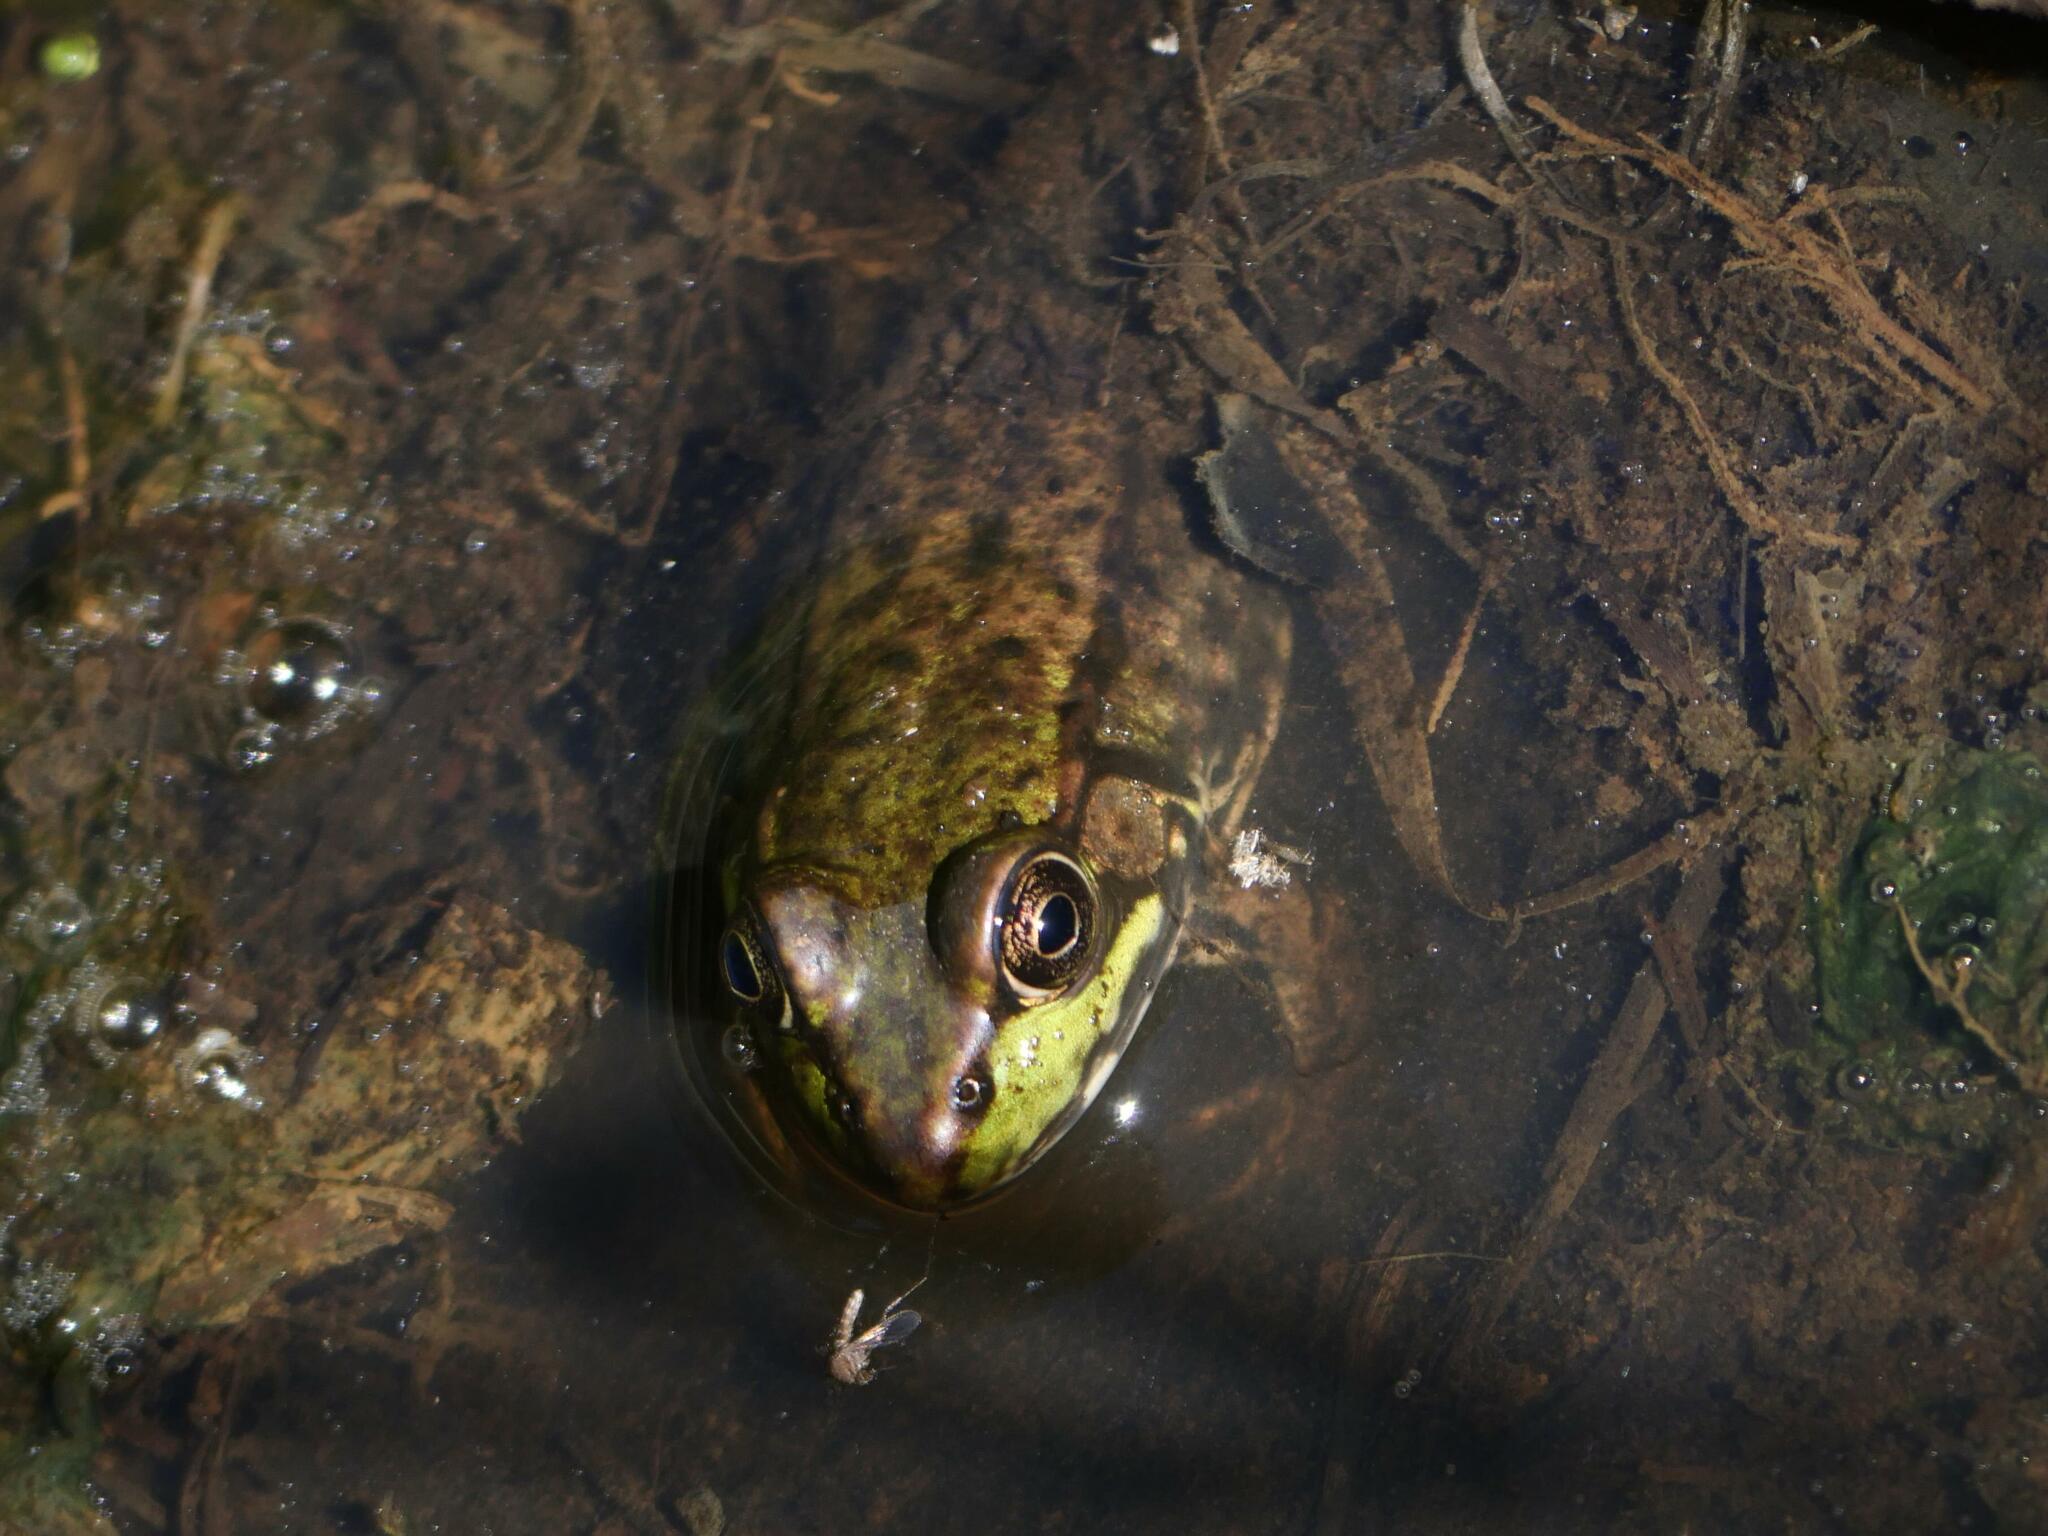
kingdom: Animalia
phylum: Chordata
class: Amphibia
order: Anura
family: Ranidae
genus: Lithobates
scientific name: Lithobates clamitans
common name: Green frog
